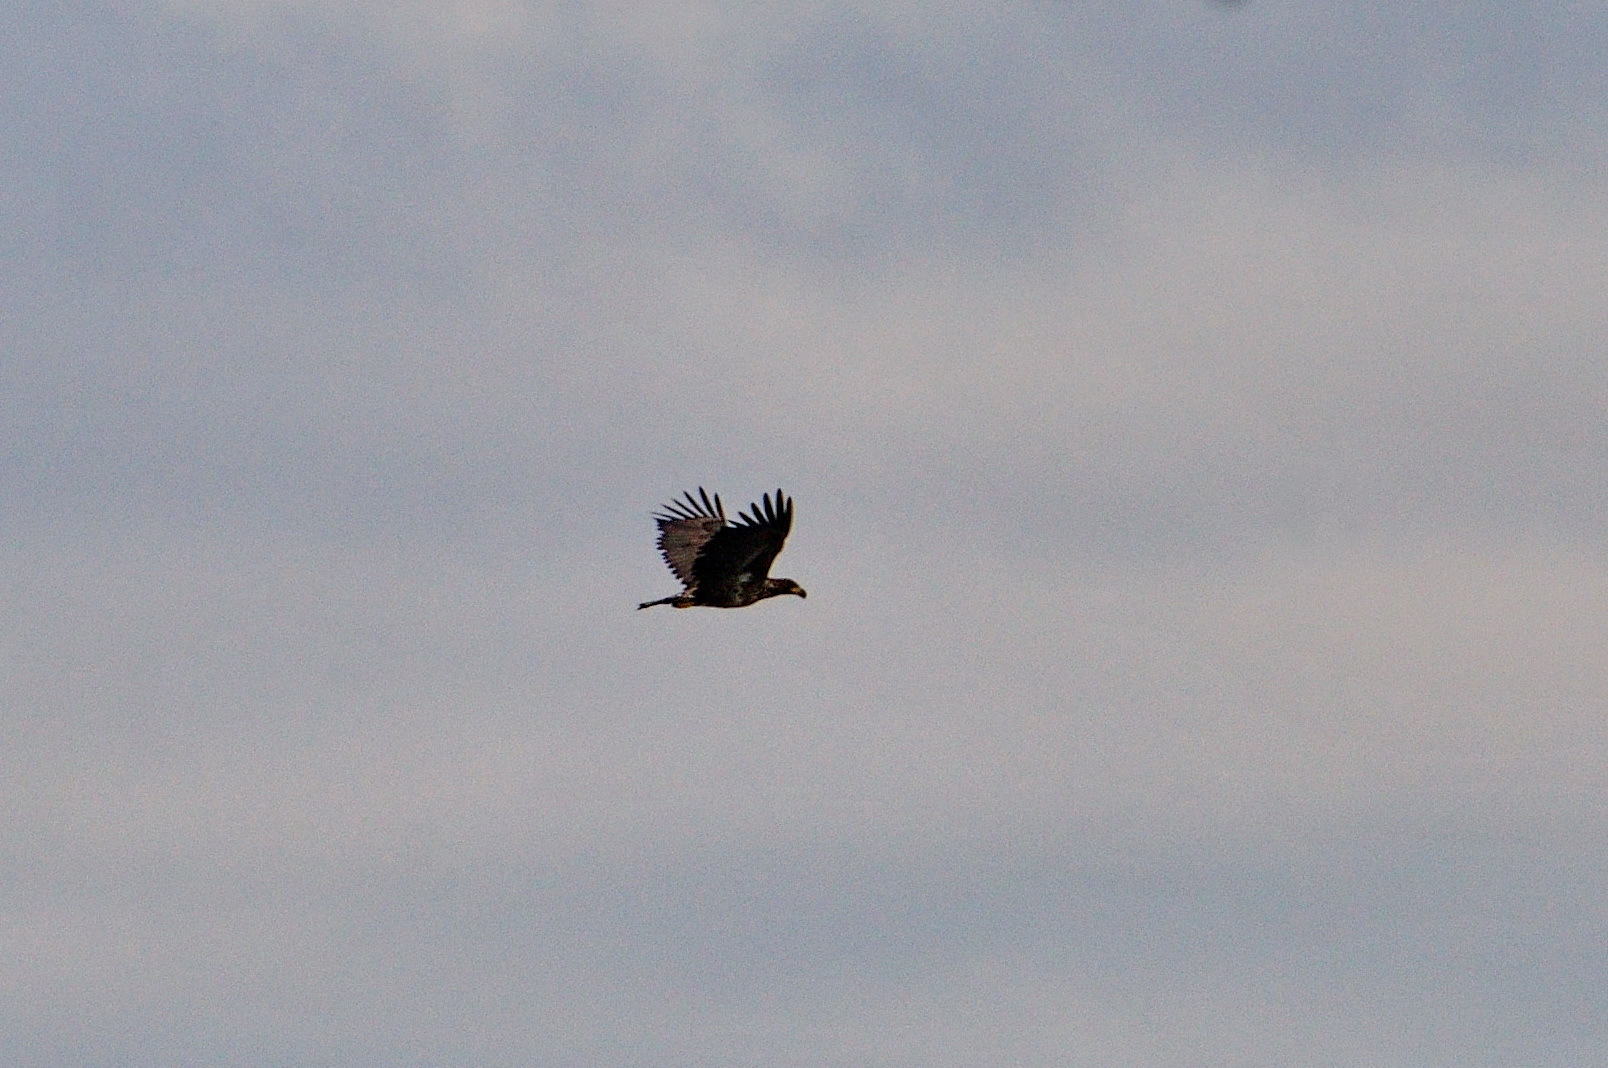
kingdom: Animalia
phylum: Chordata
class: Aves
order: Accipitriformes
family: Accipitridae
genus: Haliaeetus
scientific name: Haliaeetus albicilla
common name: White-tailed eagle
